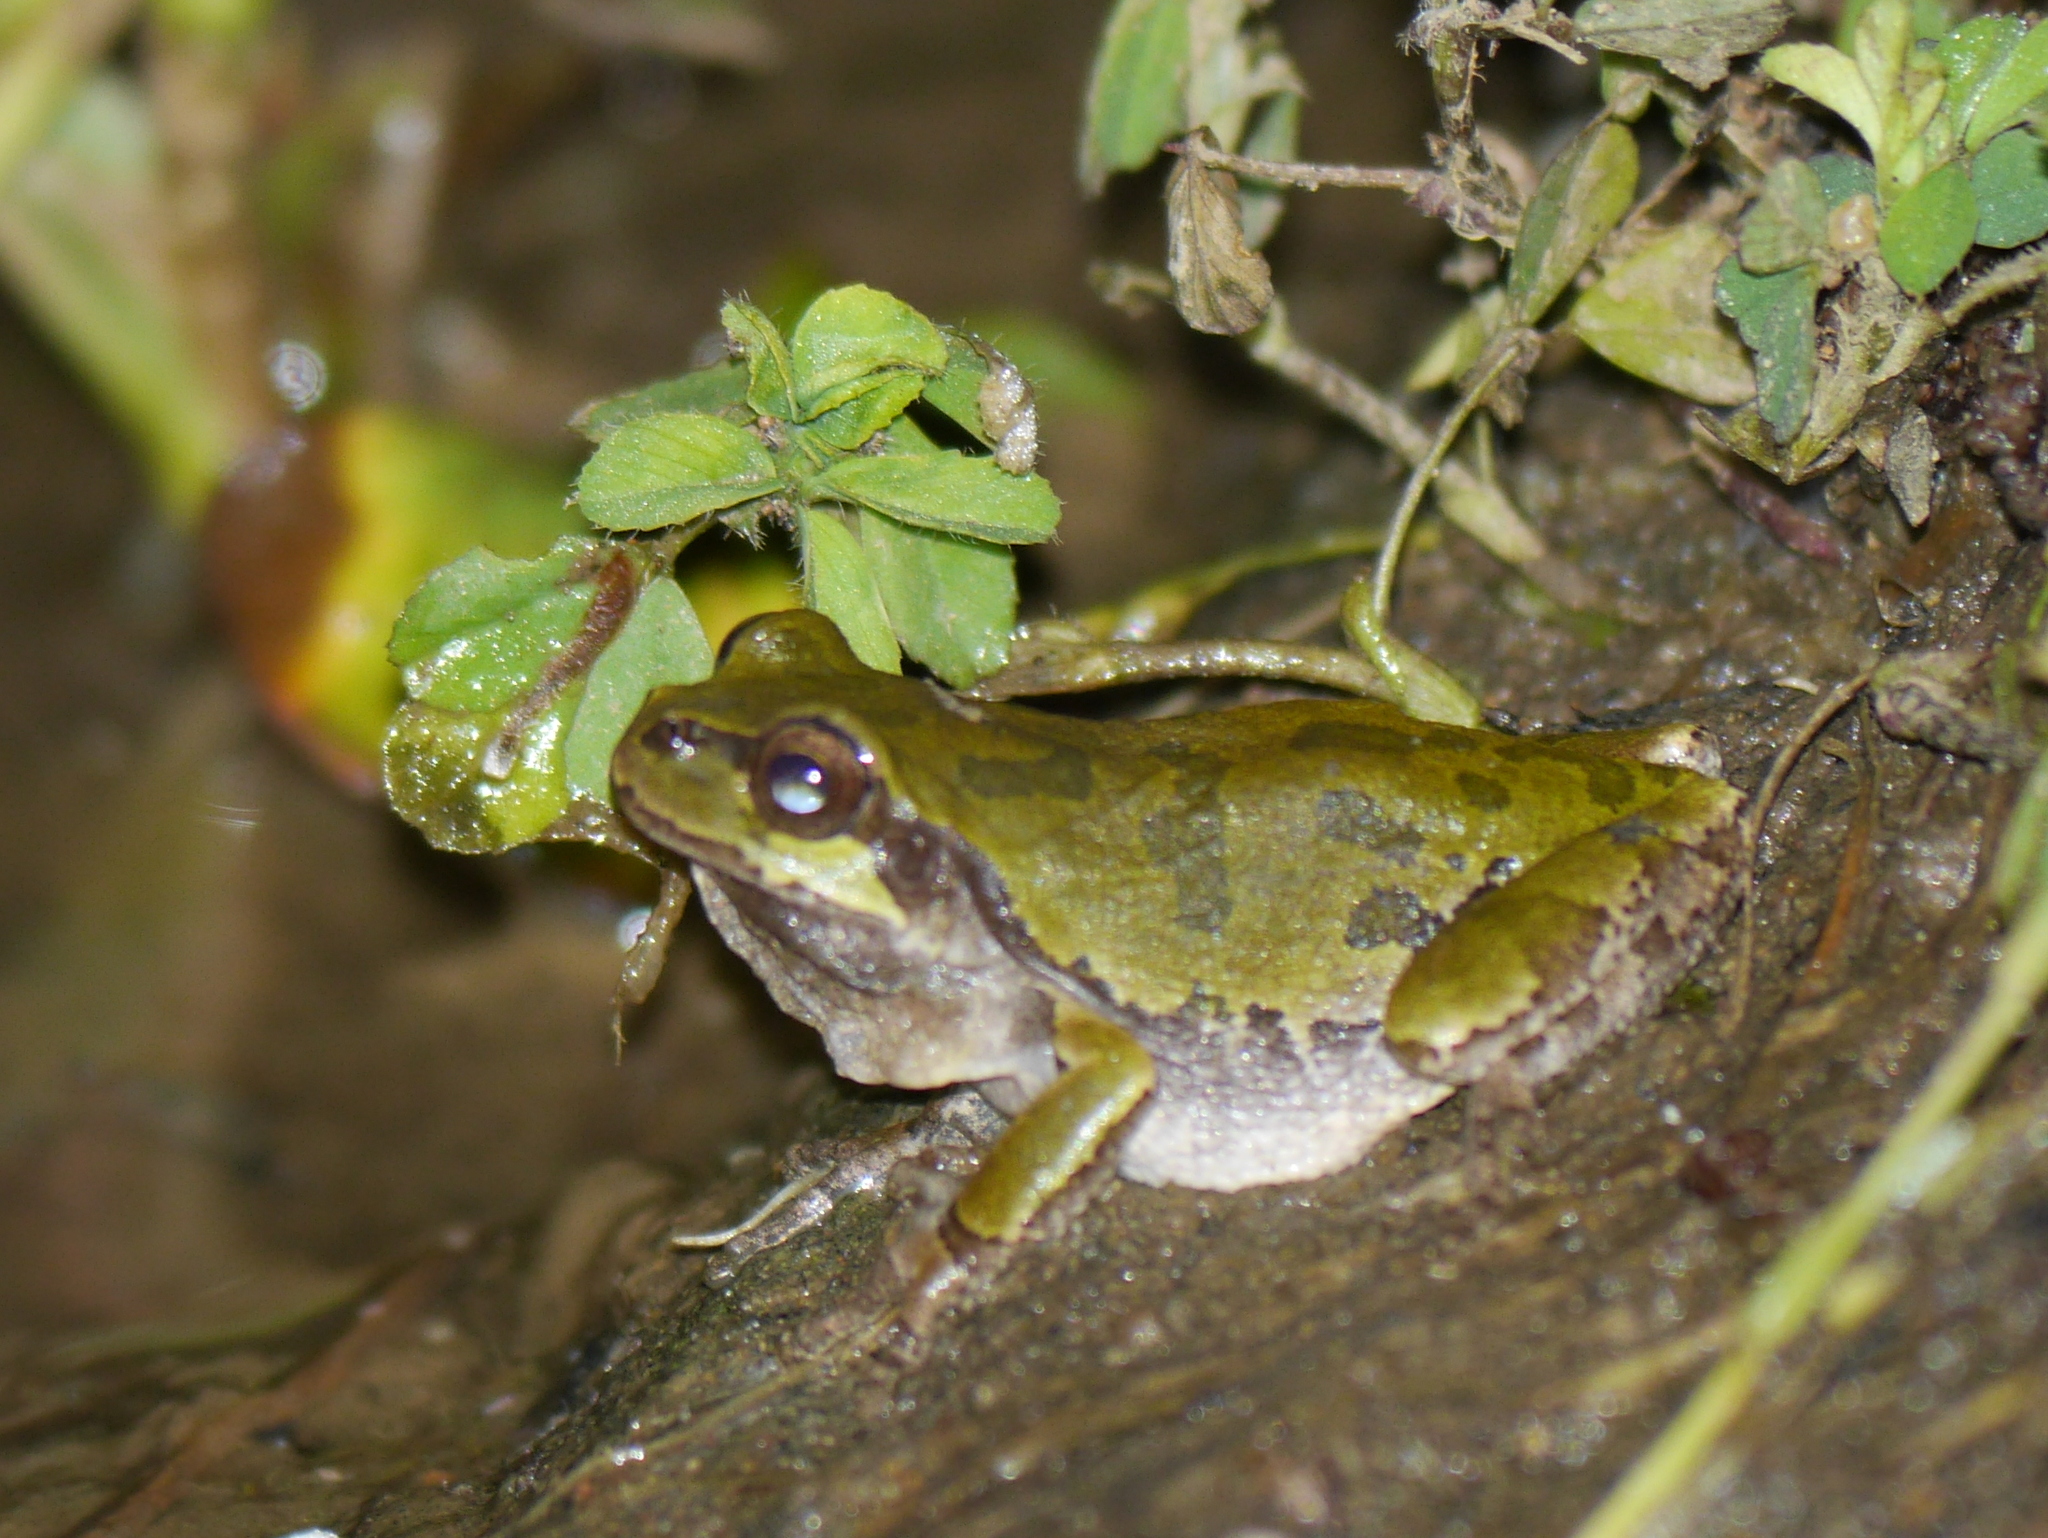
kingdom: Animalia
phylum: Chordata
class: Amphibia
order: Anura
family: Hylidae
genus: Dryophytes
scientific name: Dryophytes japonicus
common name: Japanese treefrog
